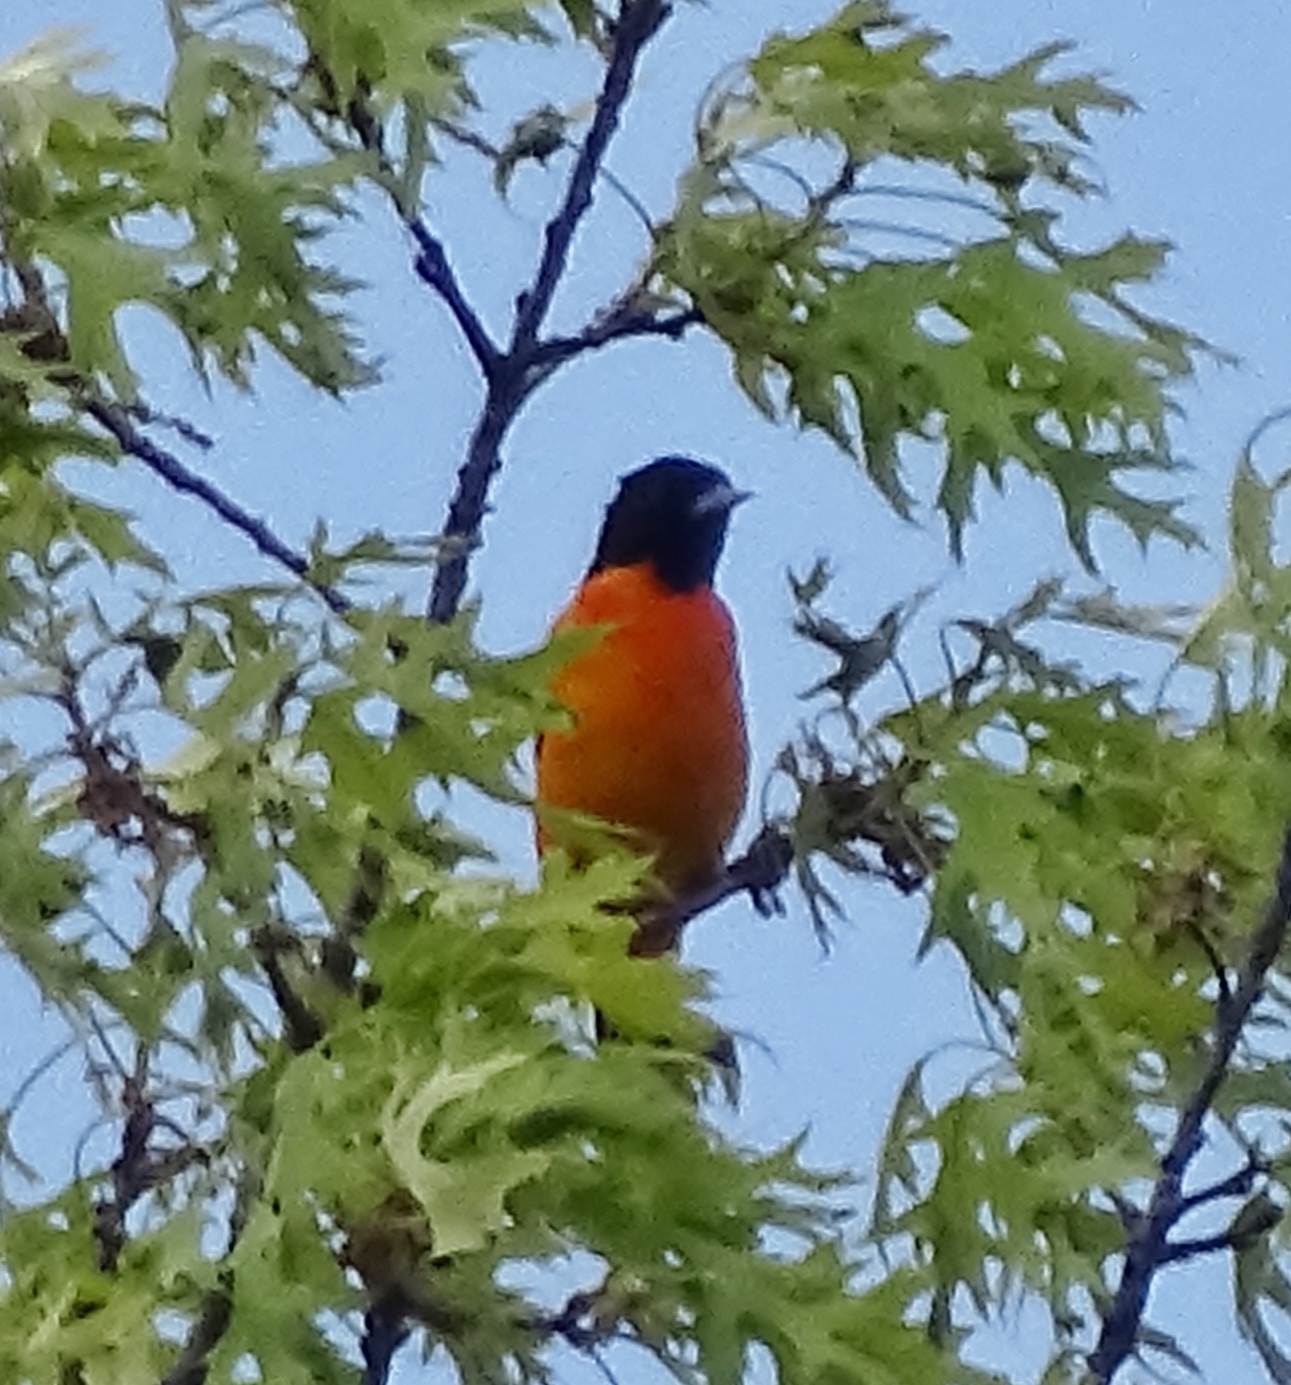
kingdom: Animalia
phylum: Chordata
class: Aves
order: Passeriformes
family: Icteridae
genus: Icterus
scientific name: Icterus galbula
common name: Baltimore oriole
